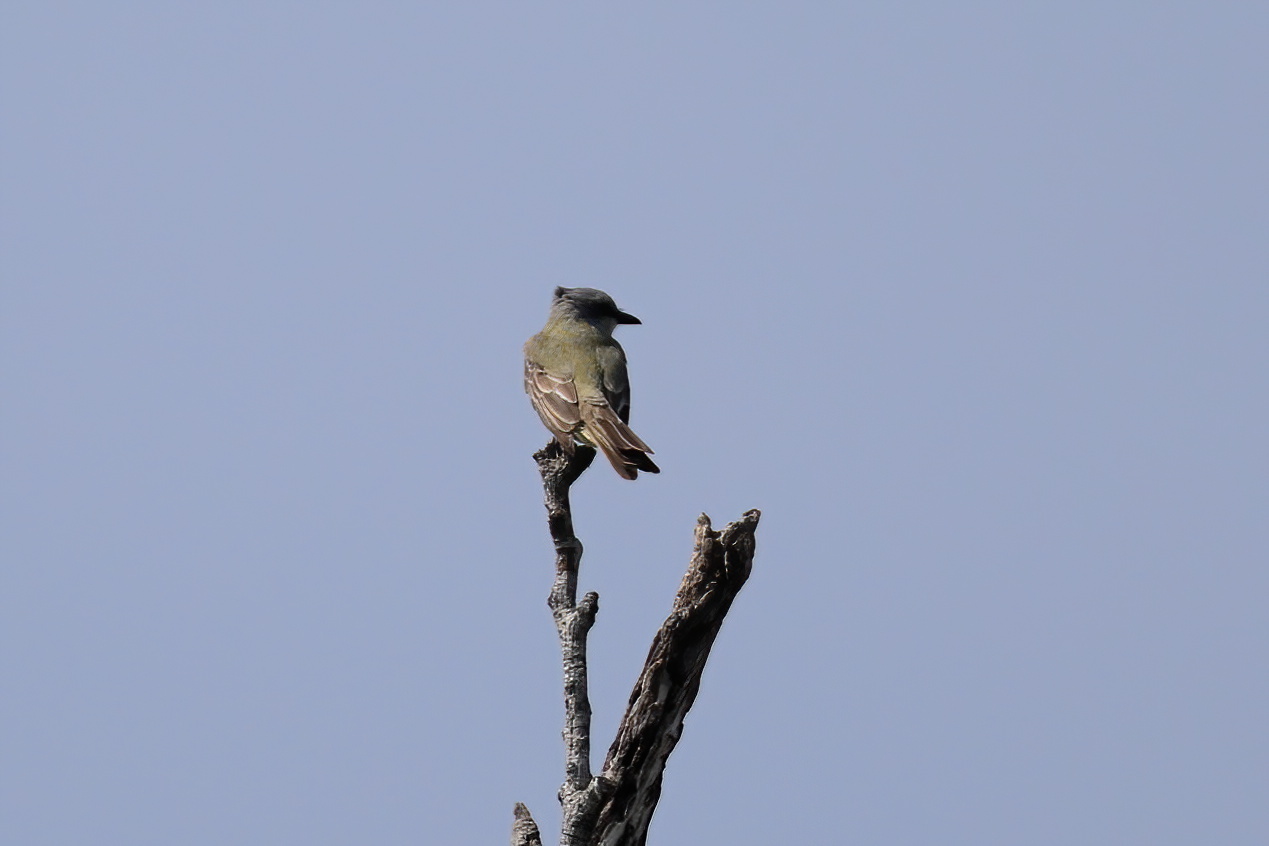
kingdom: Animalia
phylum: Chordata
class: Aves
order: Passeriformes
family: Tyrannidae
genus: Tyrannus
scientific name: Tyrannus couchii
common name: Couch's kingbird
